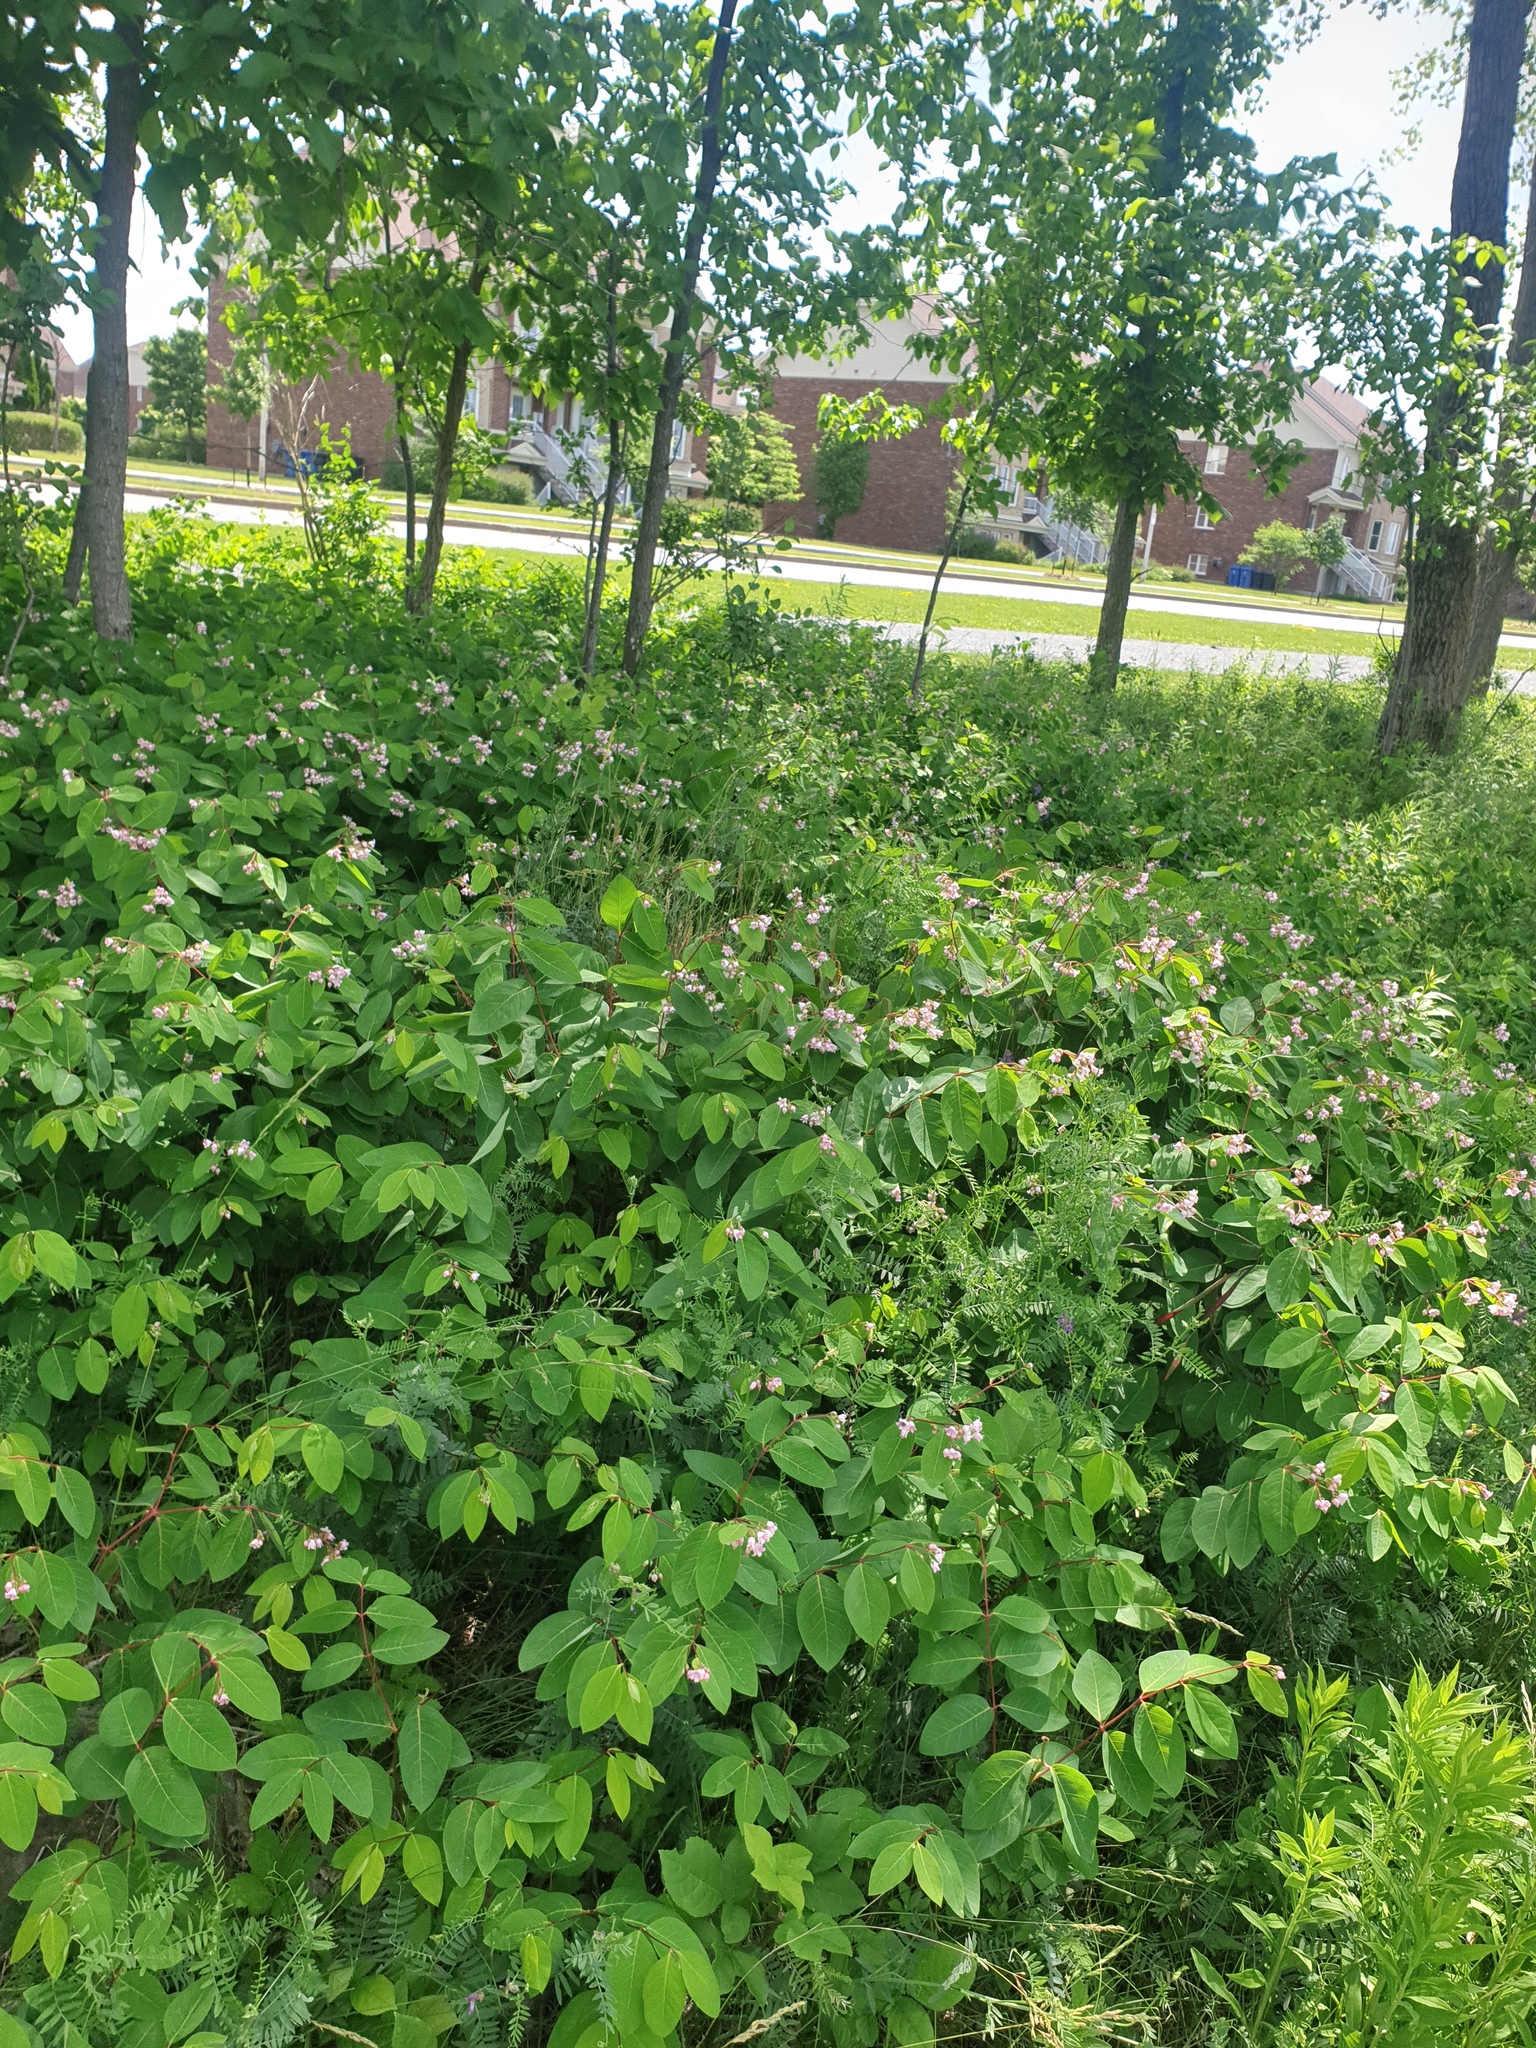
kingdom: Plantae
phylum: Tracheophyta
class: Magnoliopsida
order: Gentianales
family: Apocynaceae
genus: Apocynum
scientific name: Apocynum androsaemifolium
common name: Spreading dogbane
